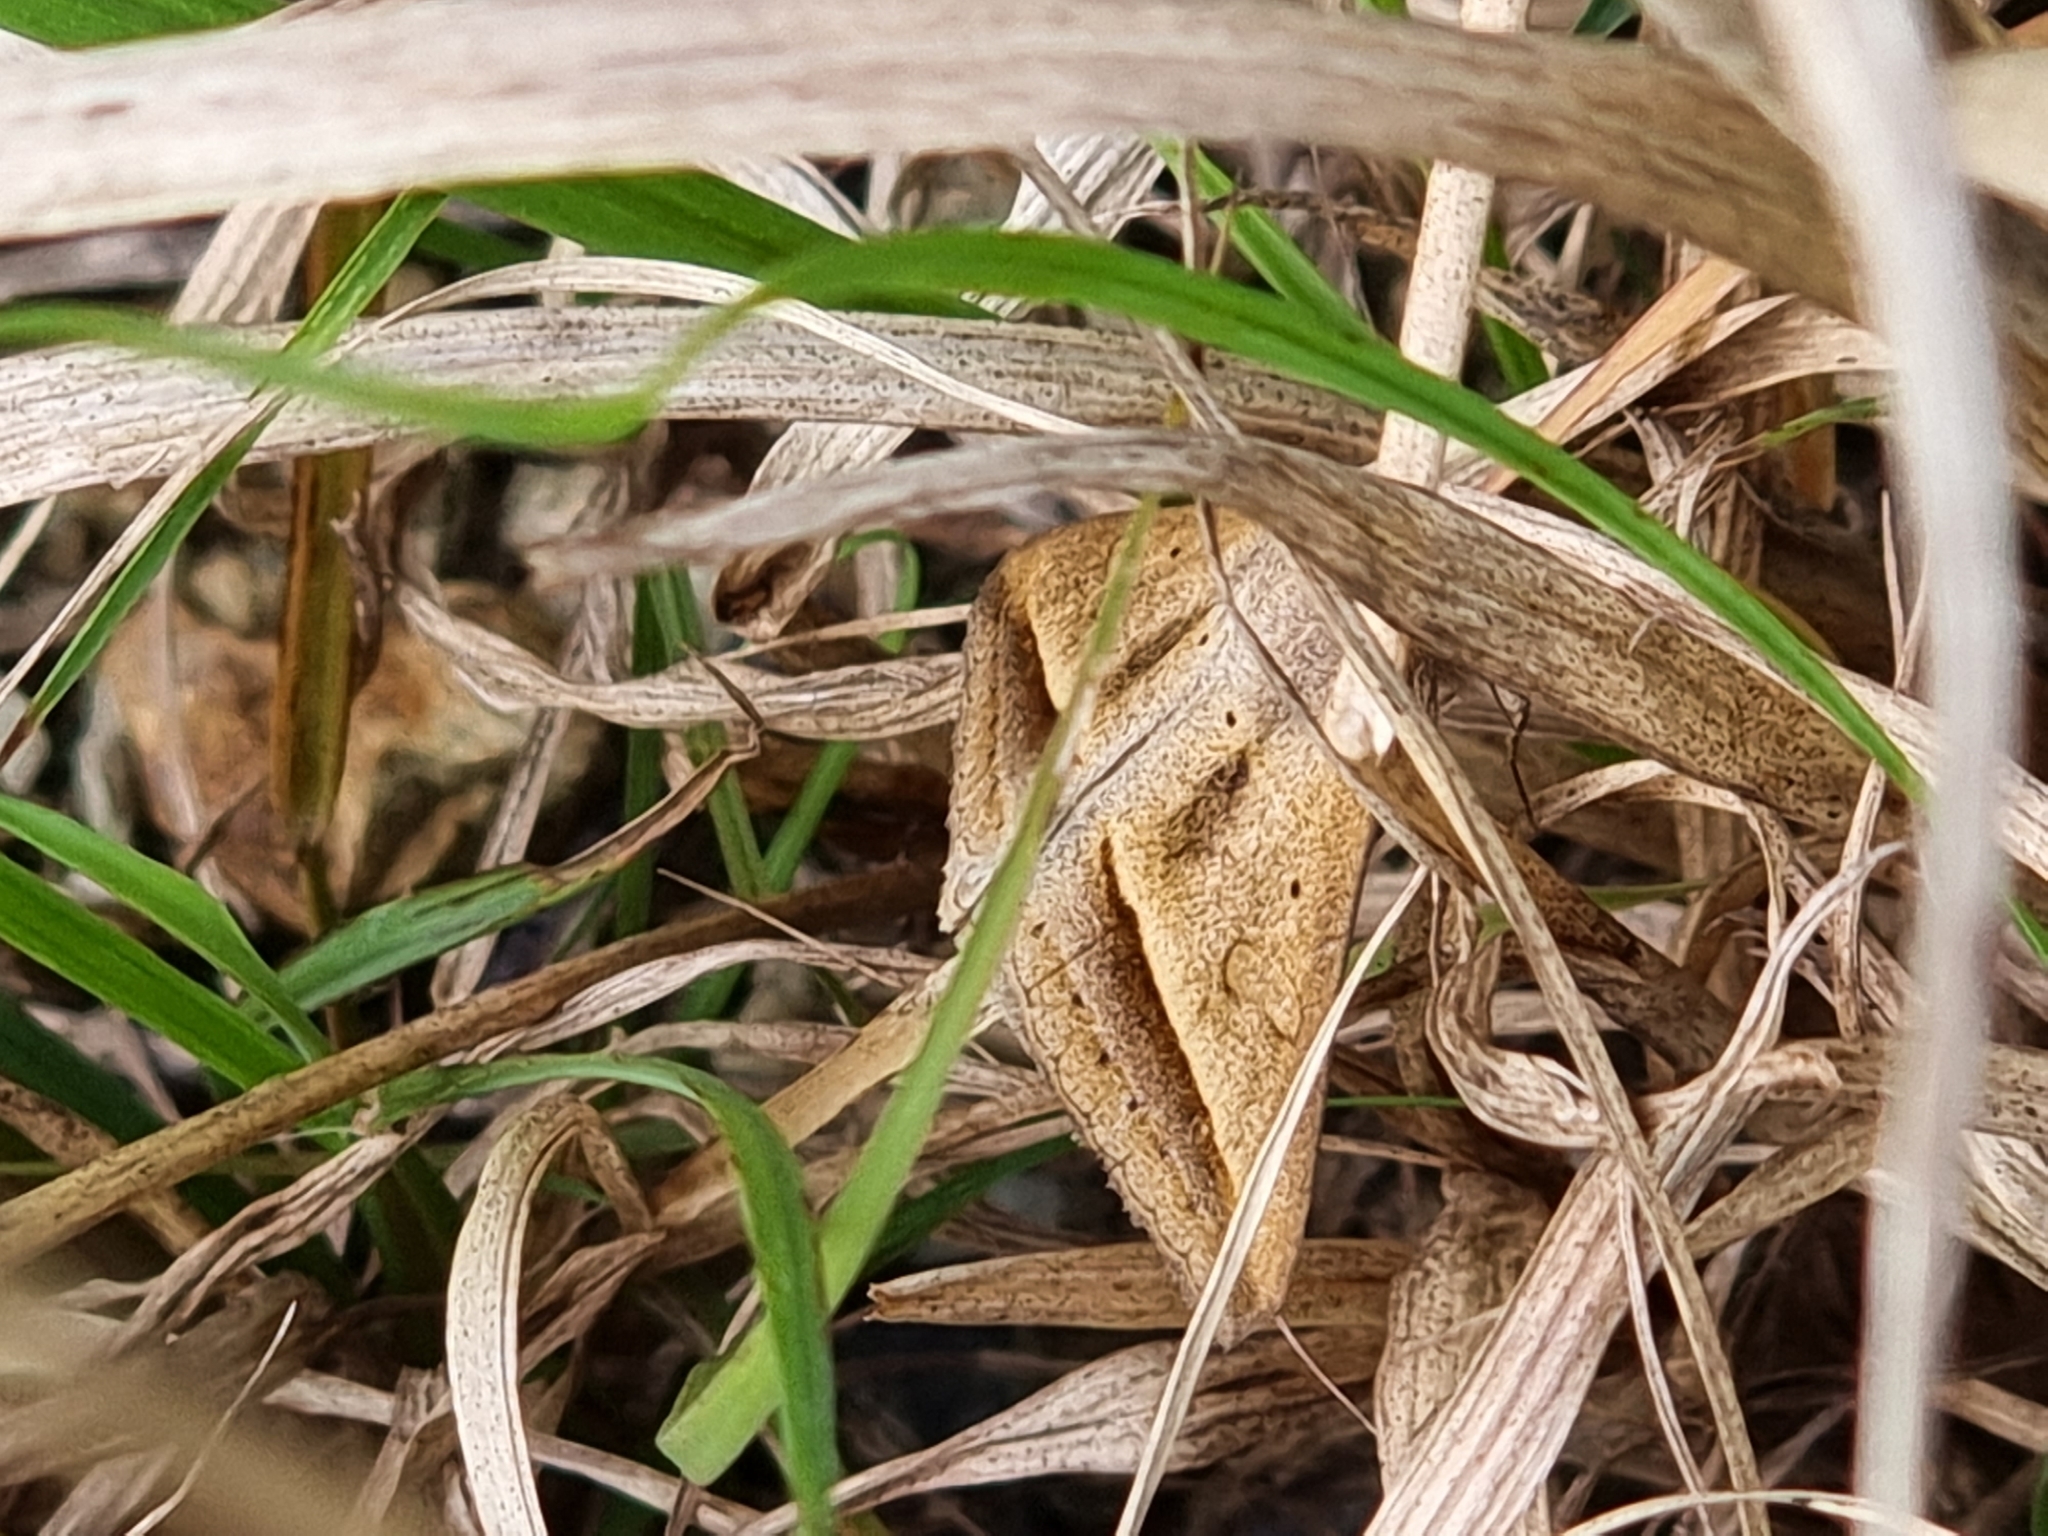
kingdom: Animalia
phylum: Arthropoda
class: Insecta
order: Lepidoptera
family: Erebidae
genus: Mocis
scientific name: Mocis frugalis
